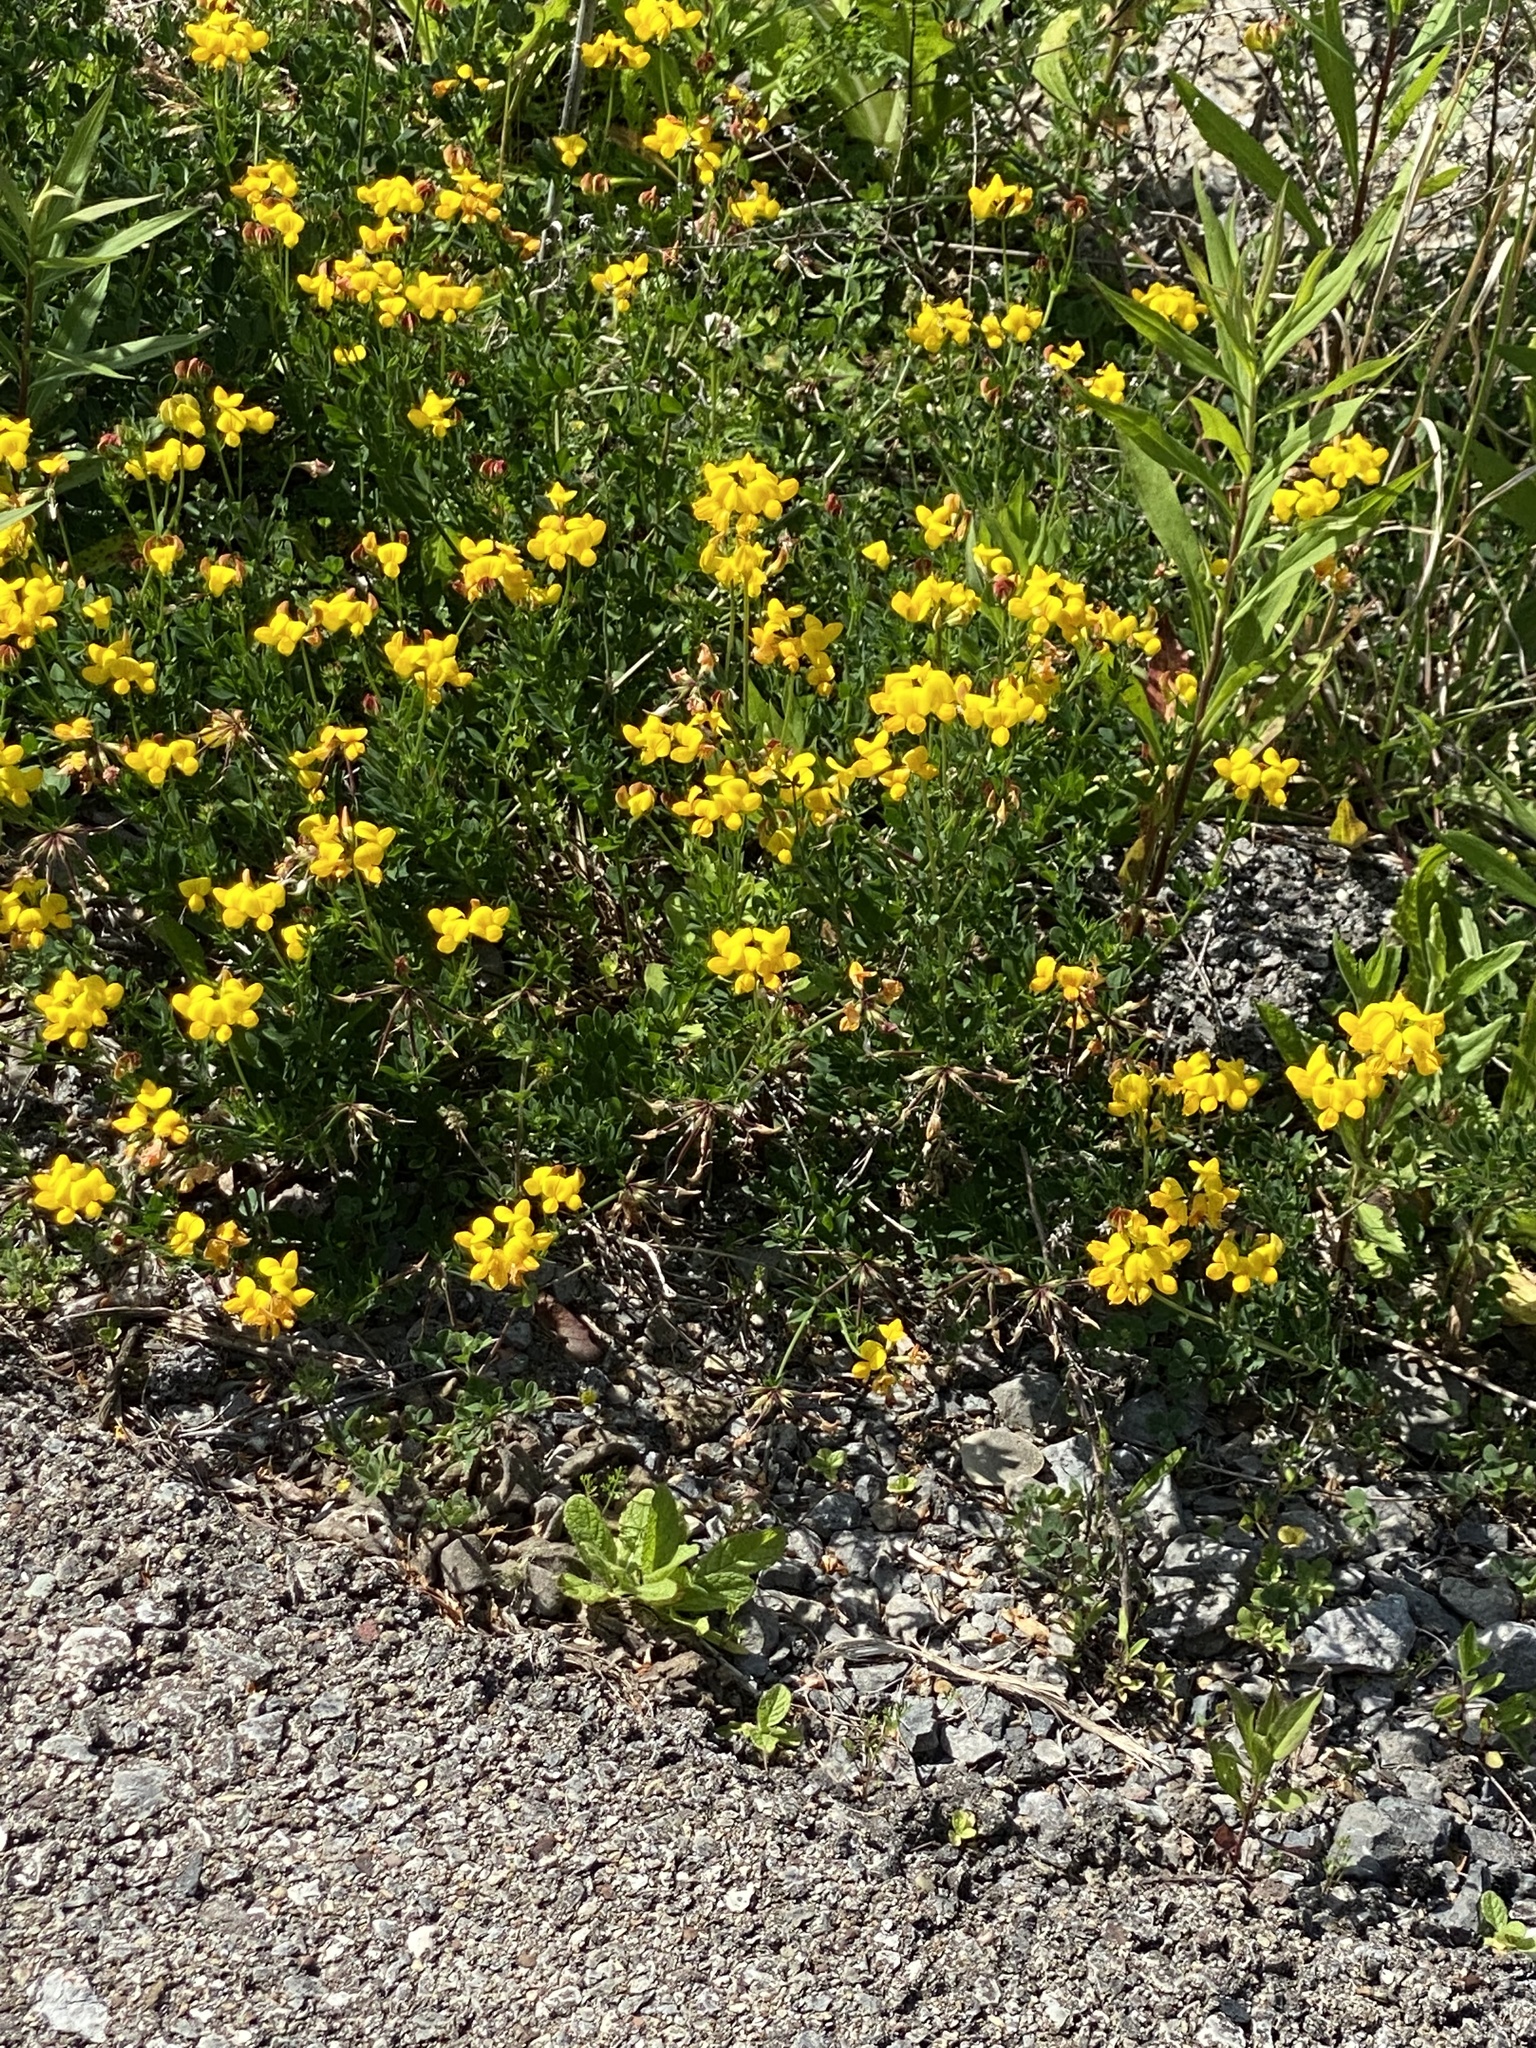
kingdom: Plantae
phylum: Tracheophyta
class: Magnoliopsida
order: Fabales
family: Fabaceae
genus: Lotus
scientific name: Lotus corniculatus
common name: Common bird's-foot-trefoil
